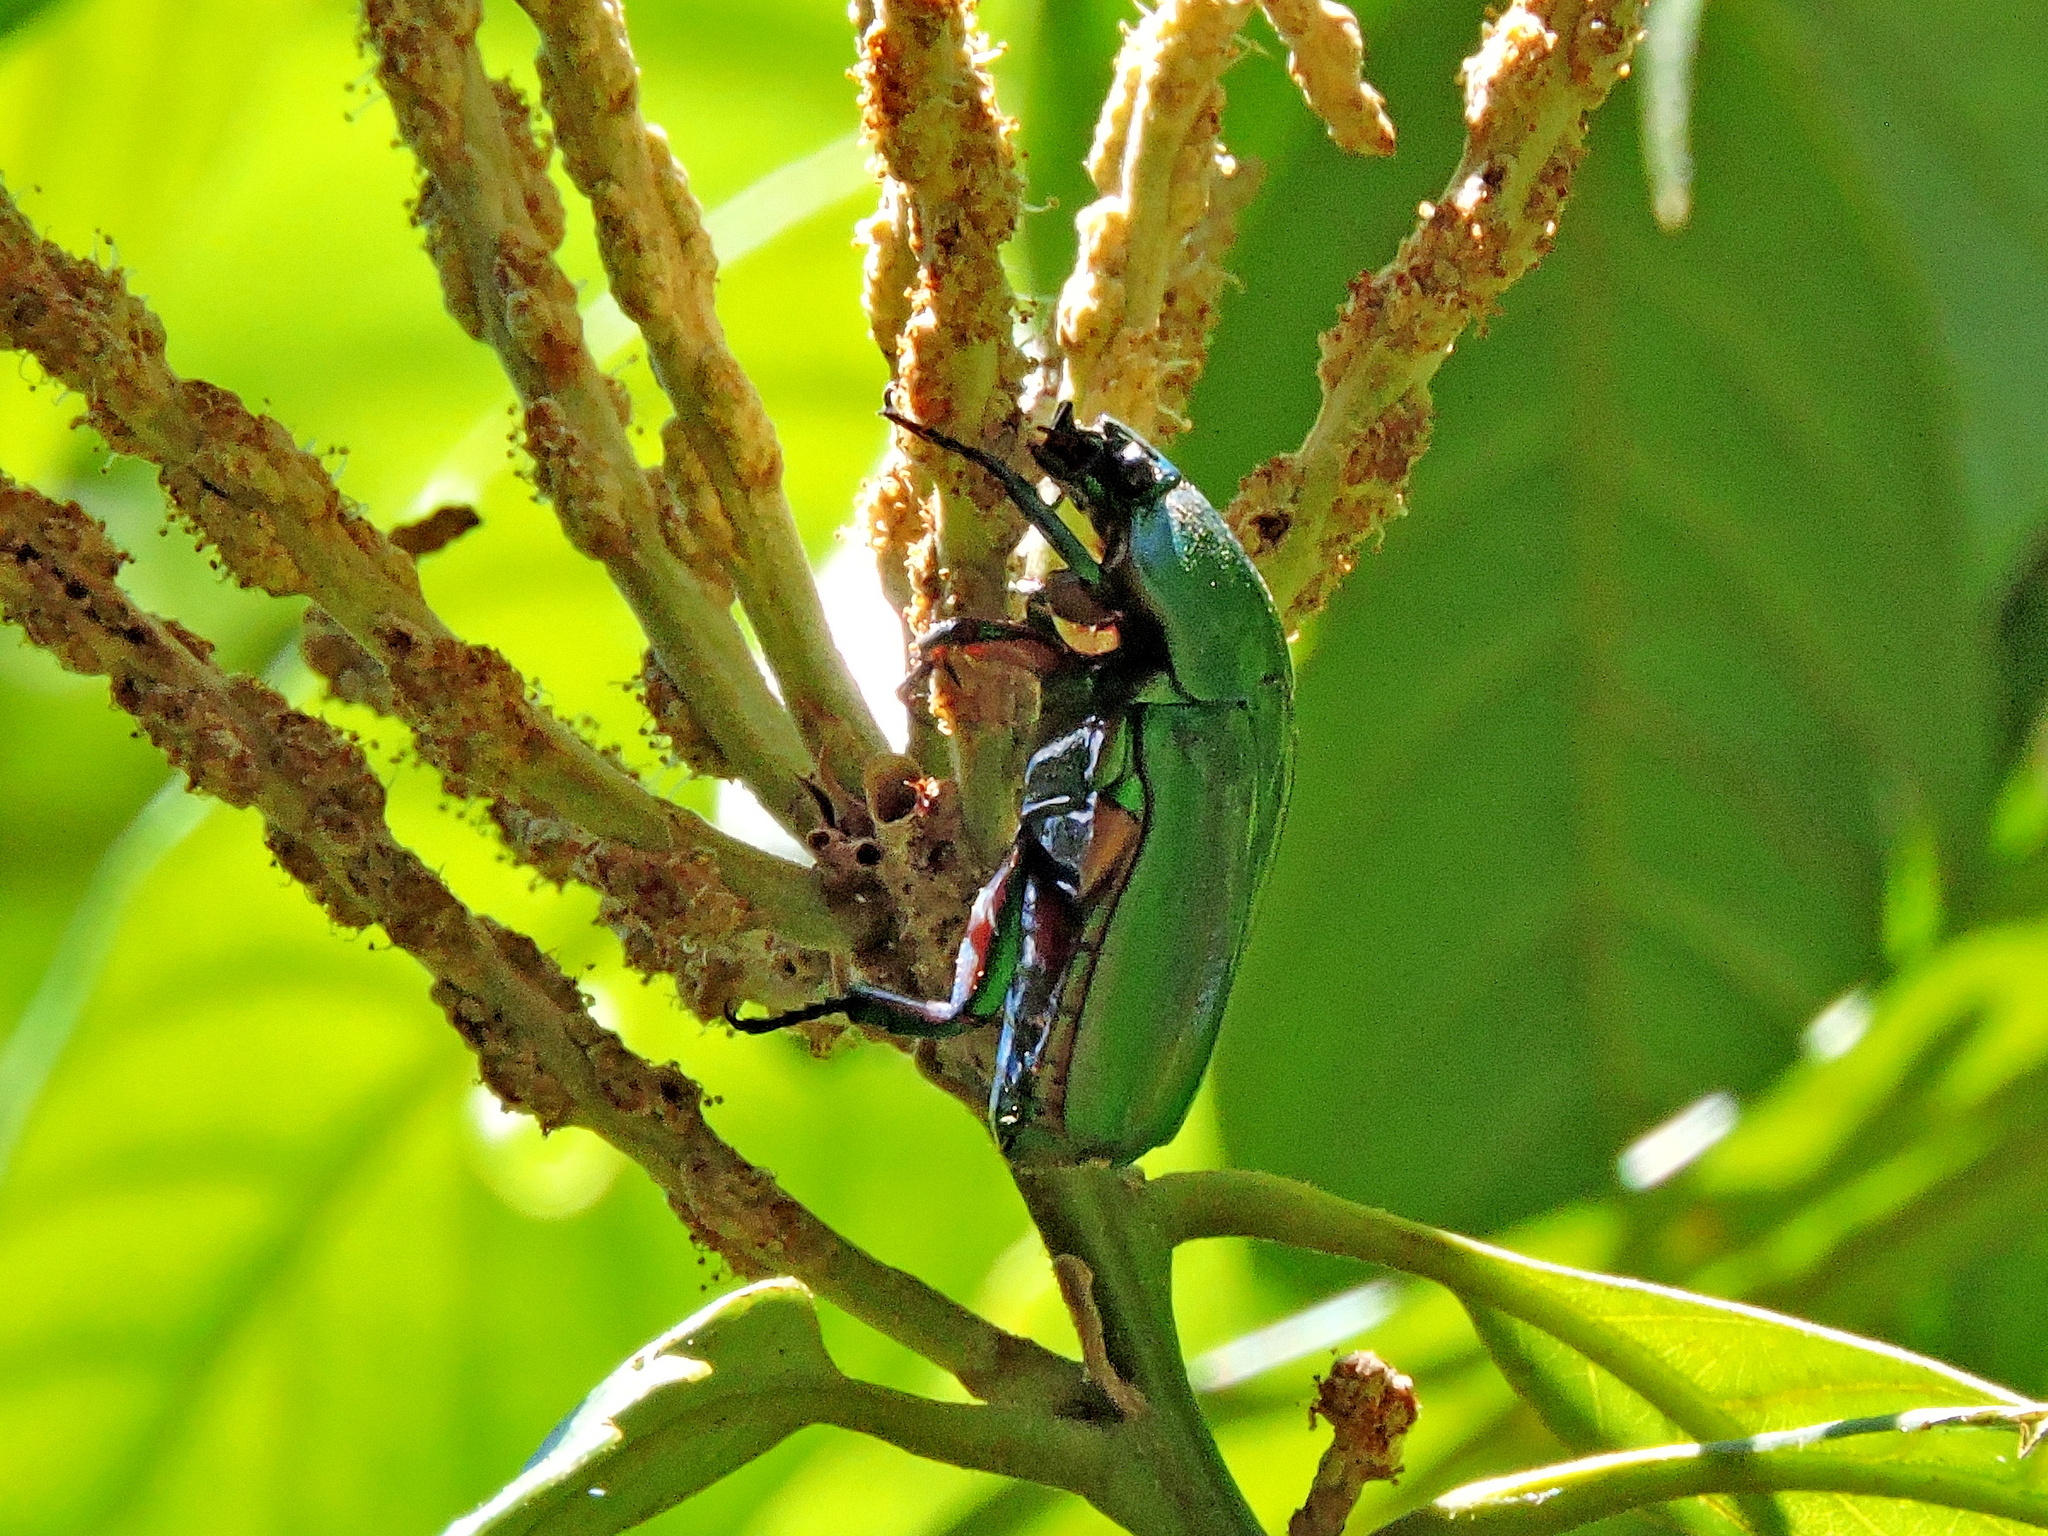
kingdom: Animalia
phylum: Arthropoda
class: Insecta
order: Coleoptera
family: Scarabaeidae
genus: Trigonophorus
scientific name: Trigonophorus dilutus
